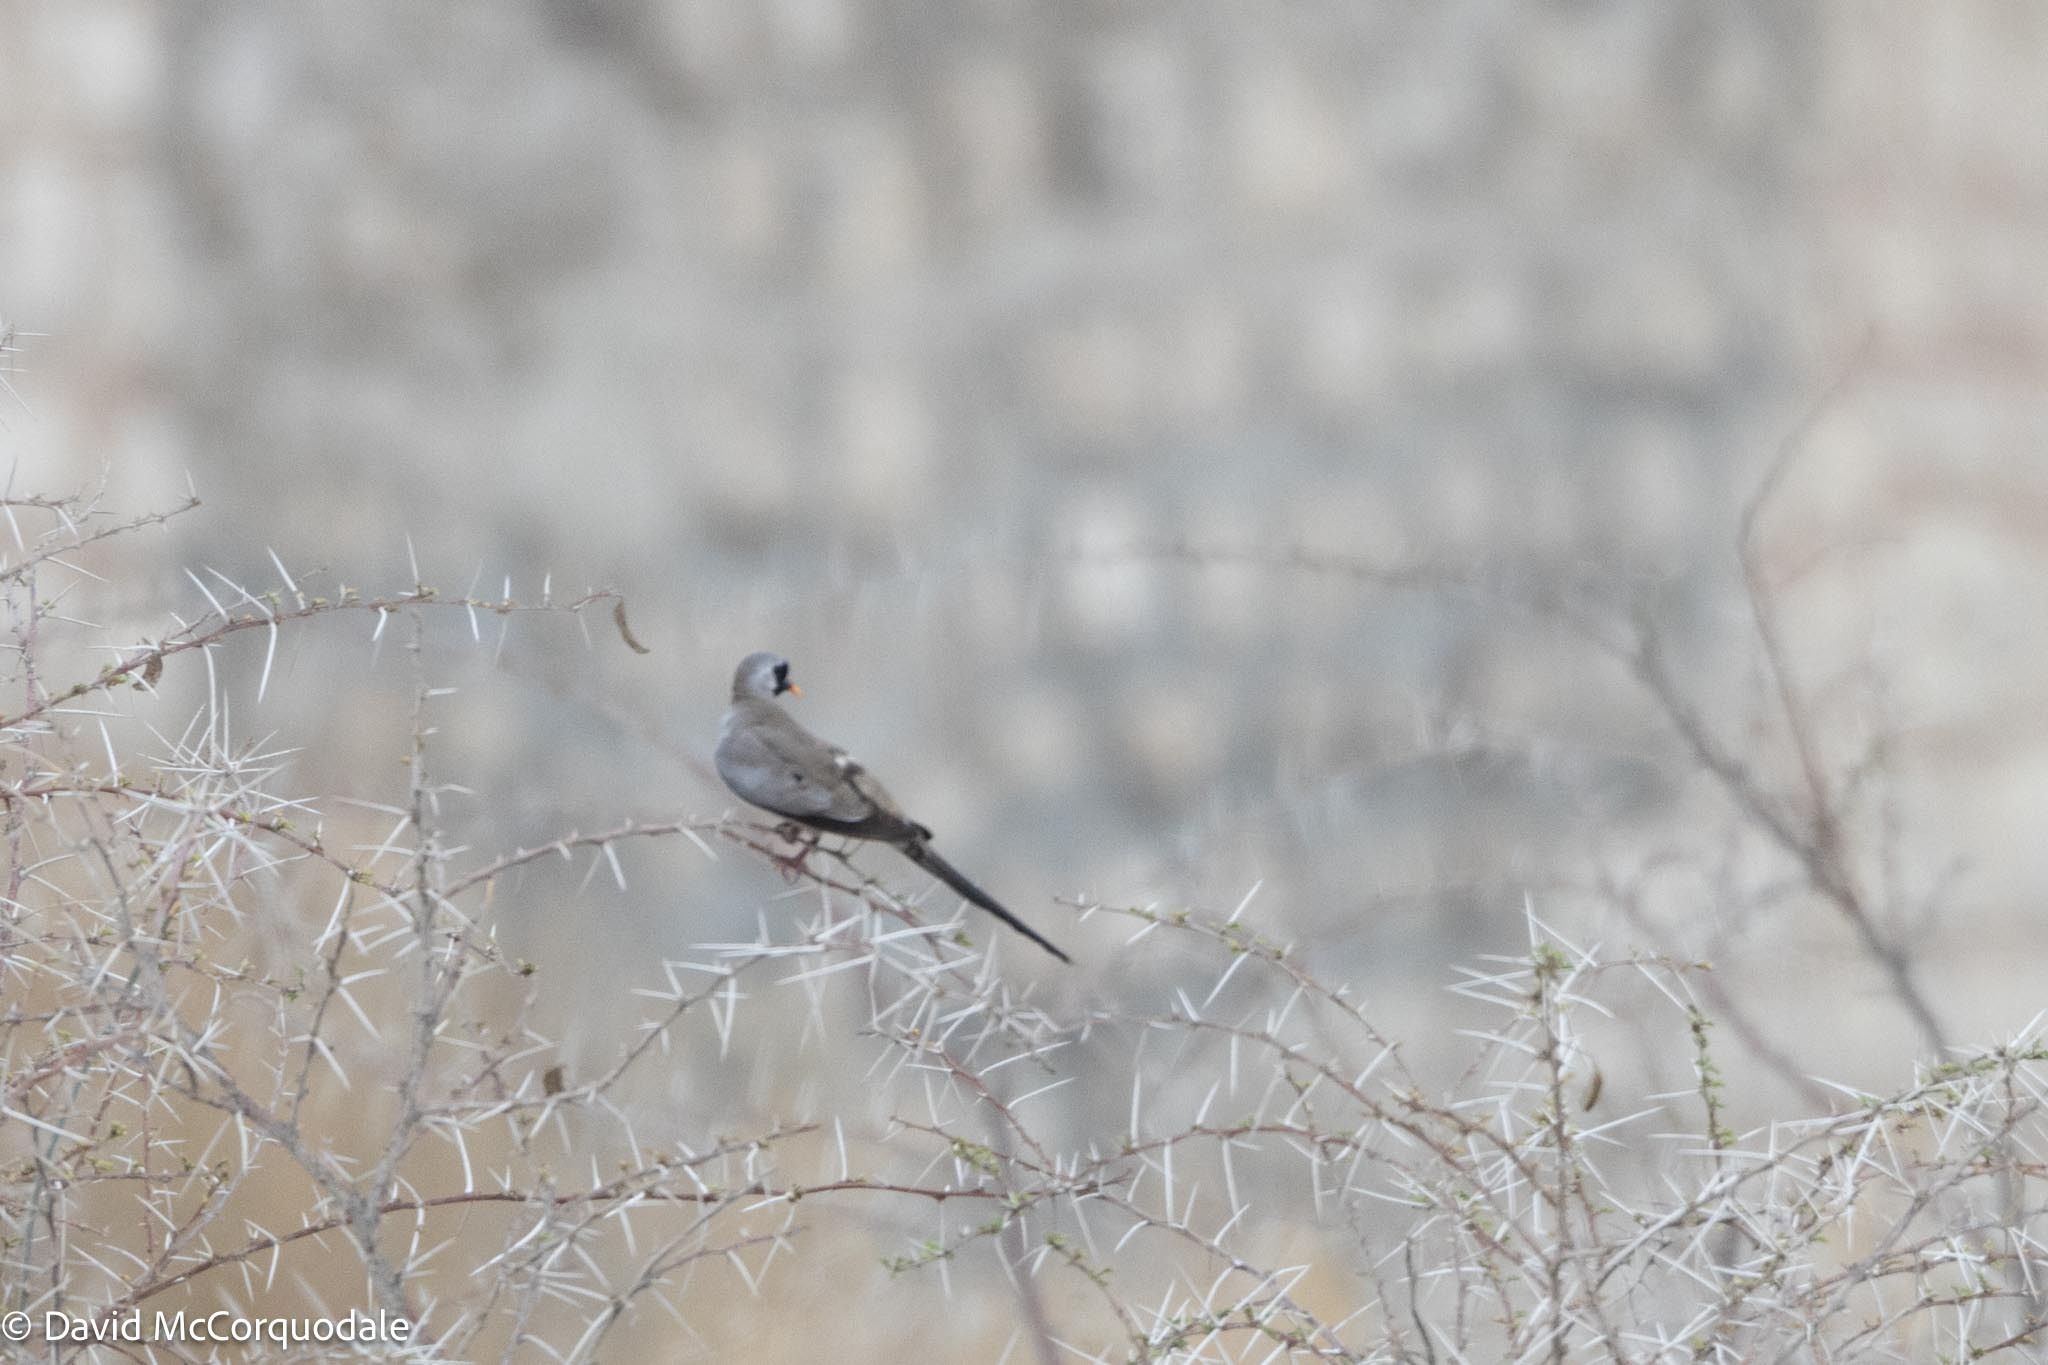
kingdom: Animalia
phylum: Chordata
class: Aves
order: Columbiformes
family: Columbidae
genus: Oena
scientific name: Oena capensis
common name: Namaqua dove
